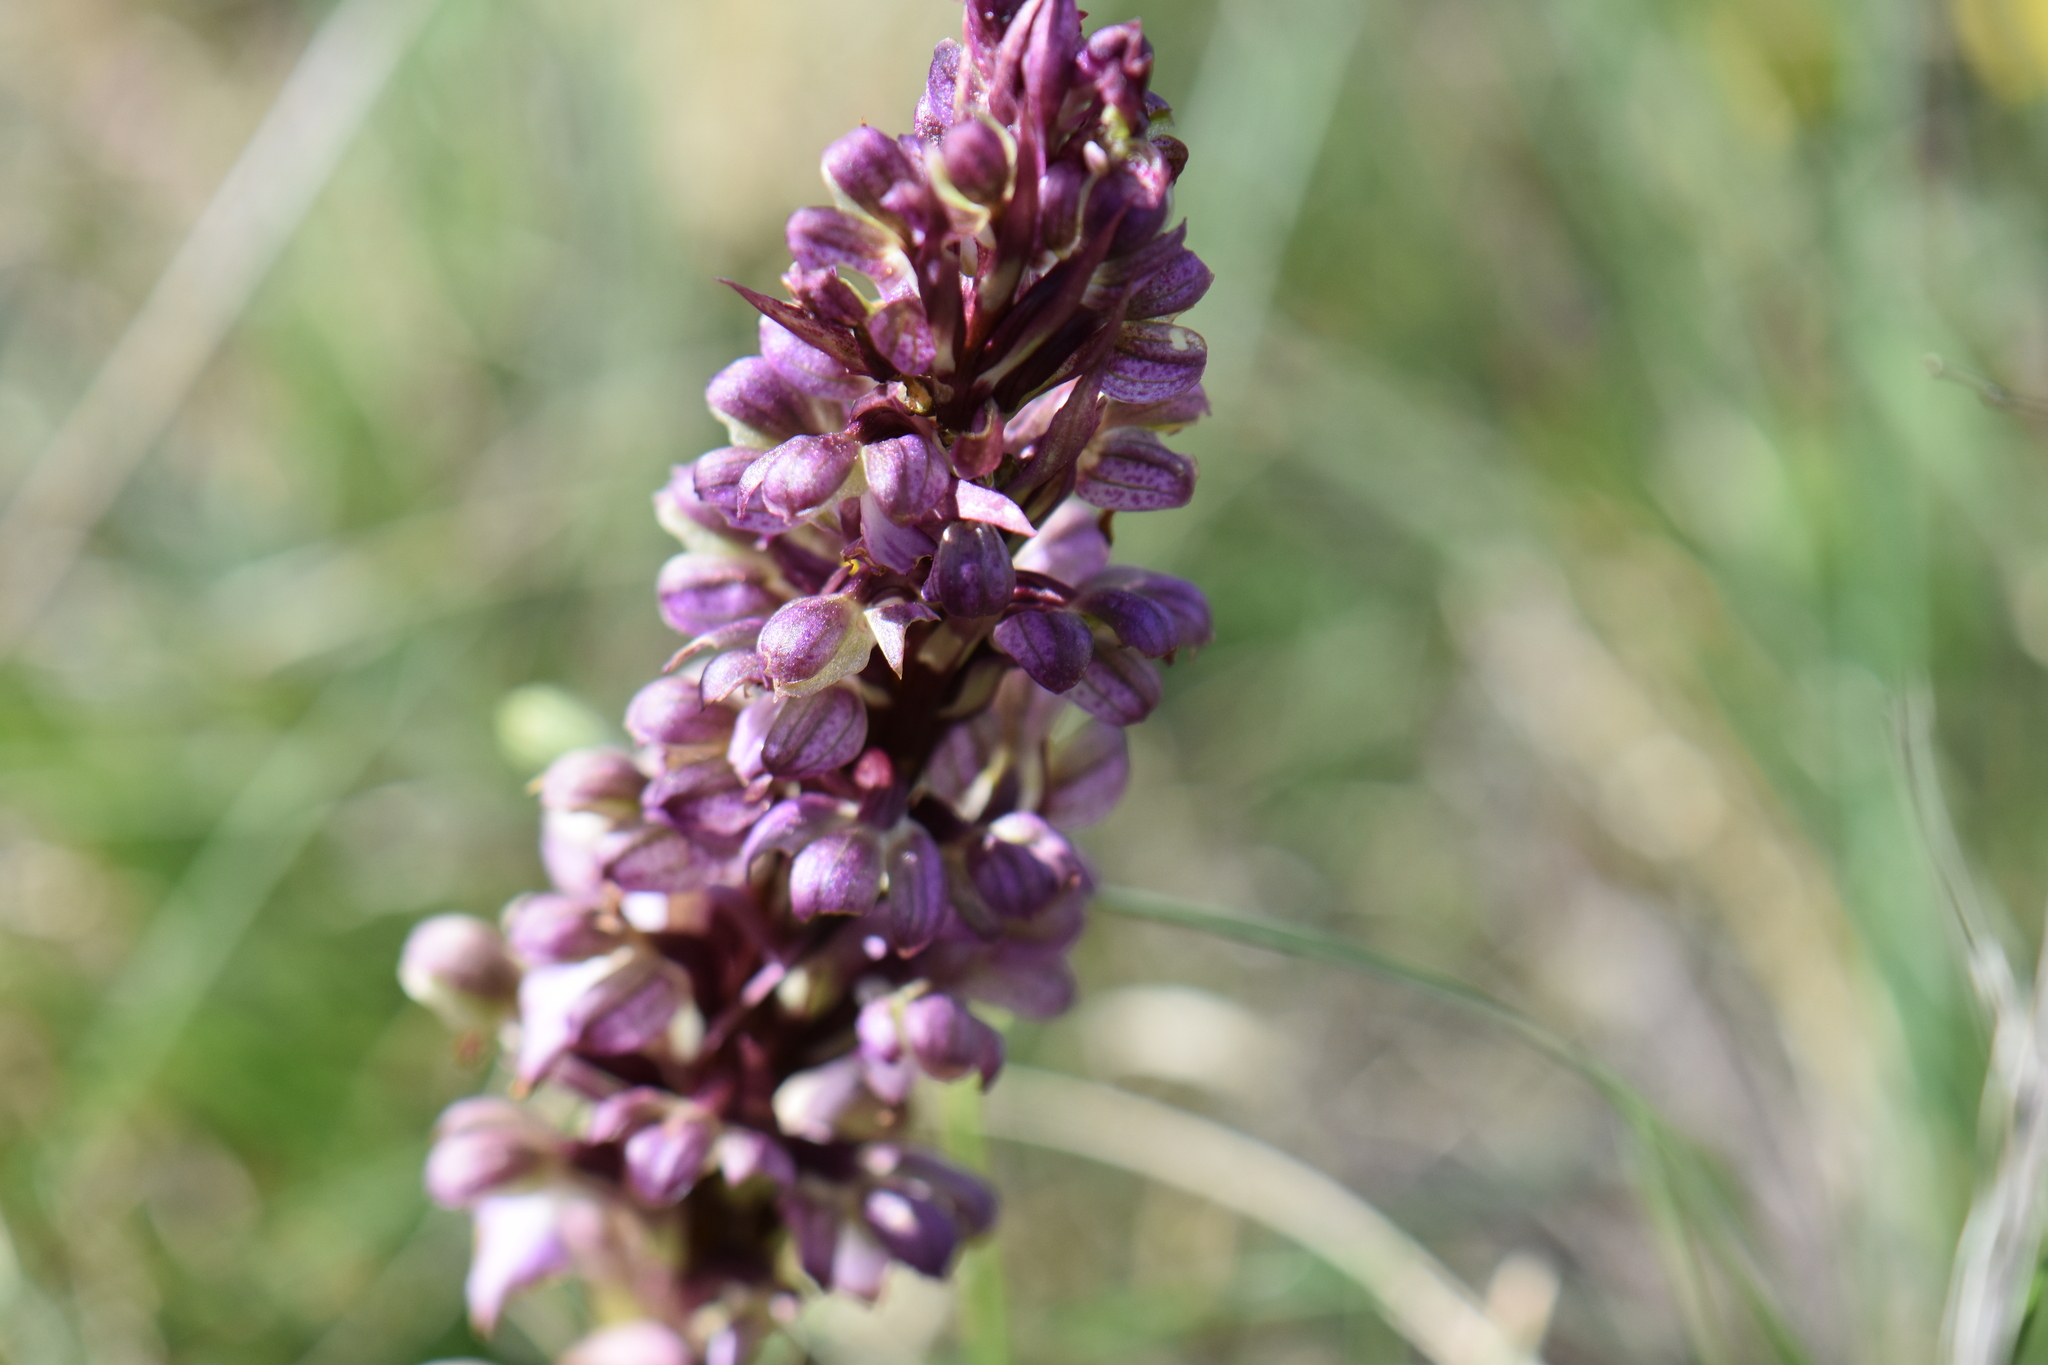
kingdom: Plantae
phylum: Tracheophyta
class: Liliopsida
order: Asparagales
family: Orchidaceae
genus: Himantoglossum
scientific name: Himantoglossum robertianum
